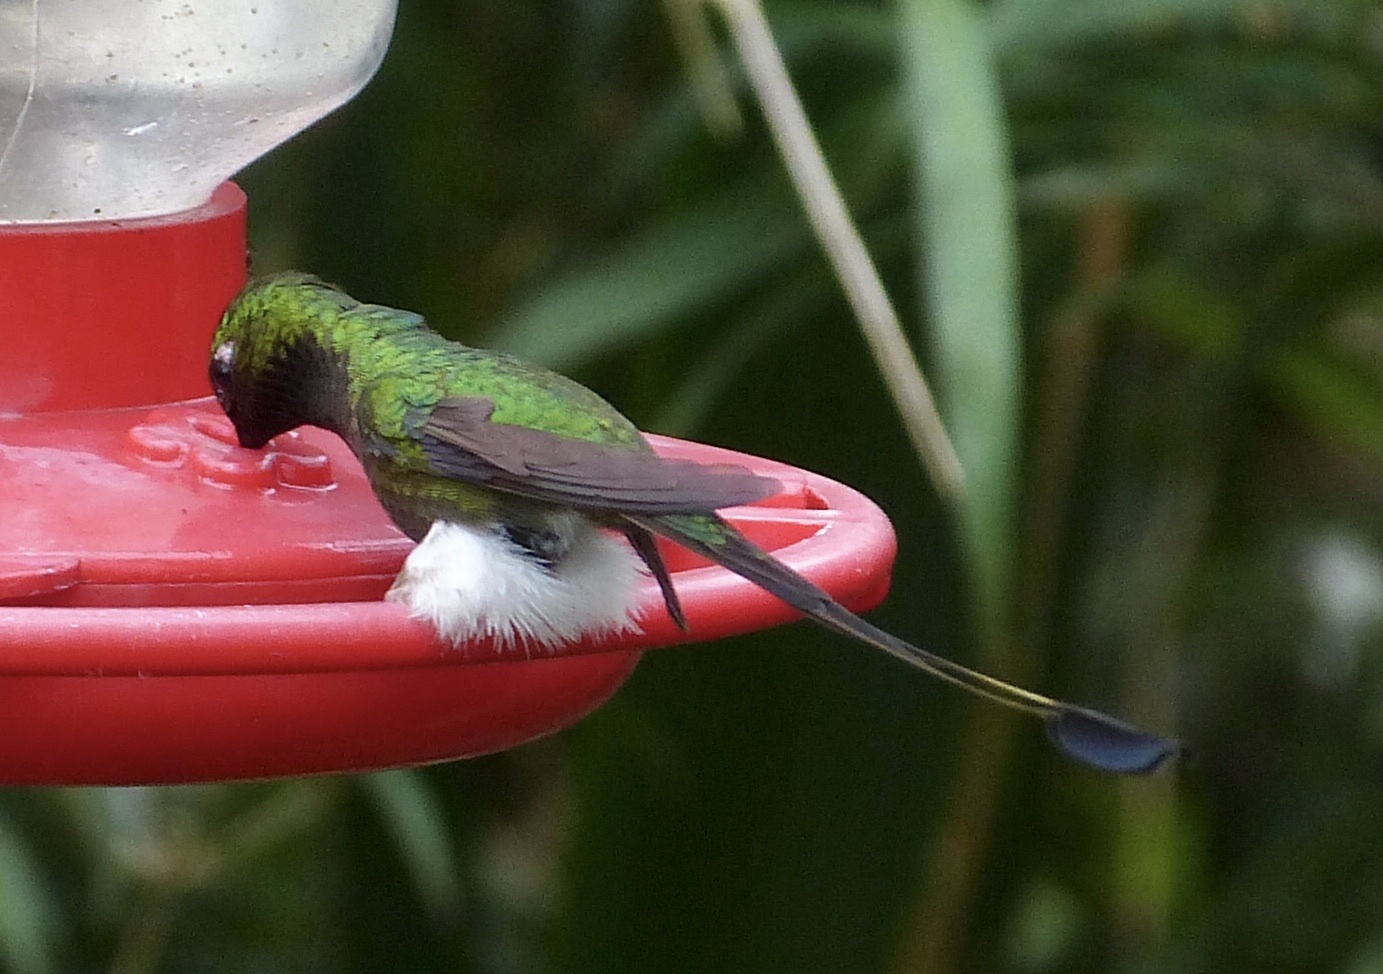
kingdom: Animalia
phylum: Chordata
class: Aves
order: Apodiformes
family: Trochilidae
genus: Ocreatus
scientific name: Ocreatus underwoodii
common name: Booted racket-tail
